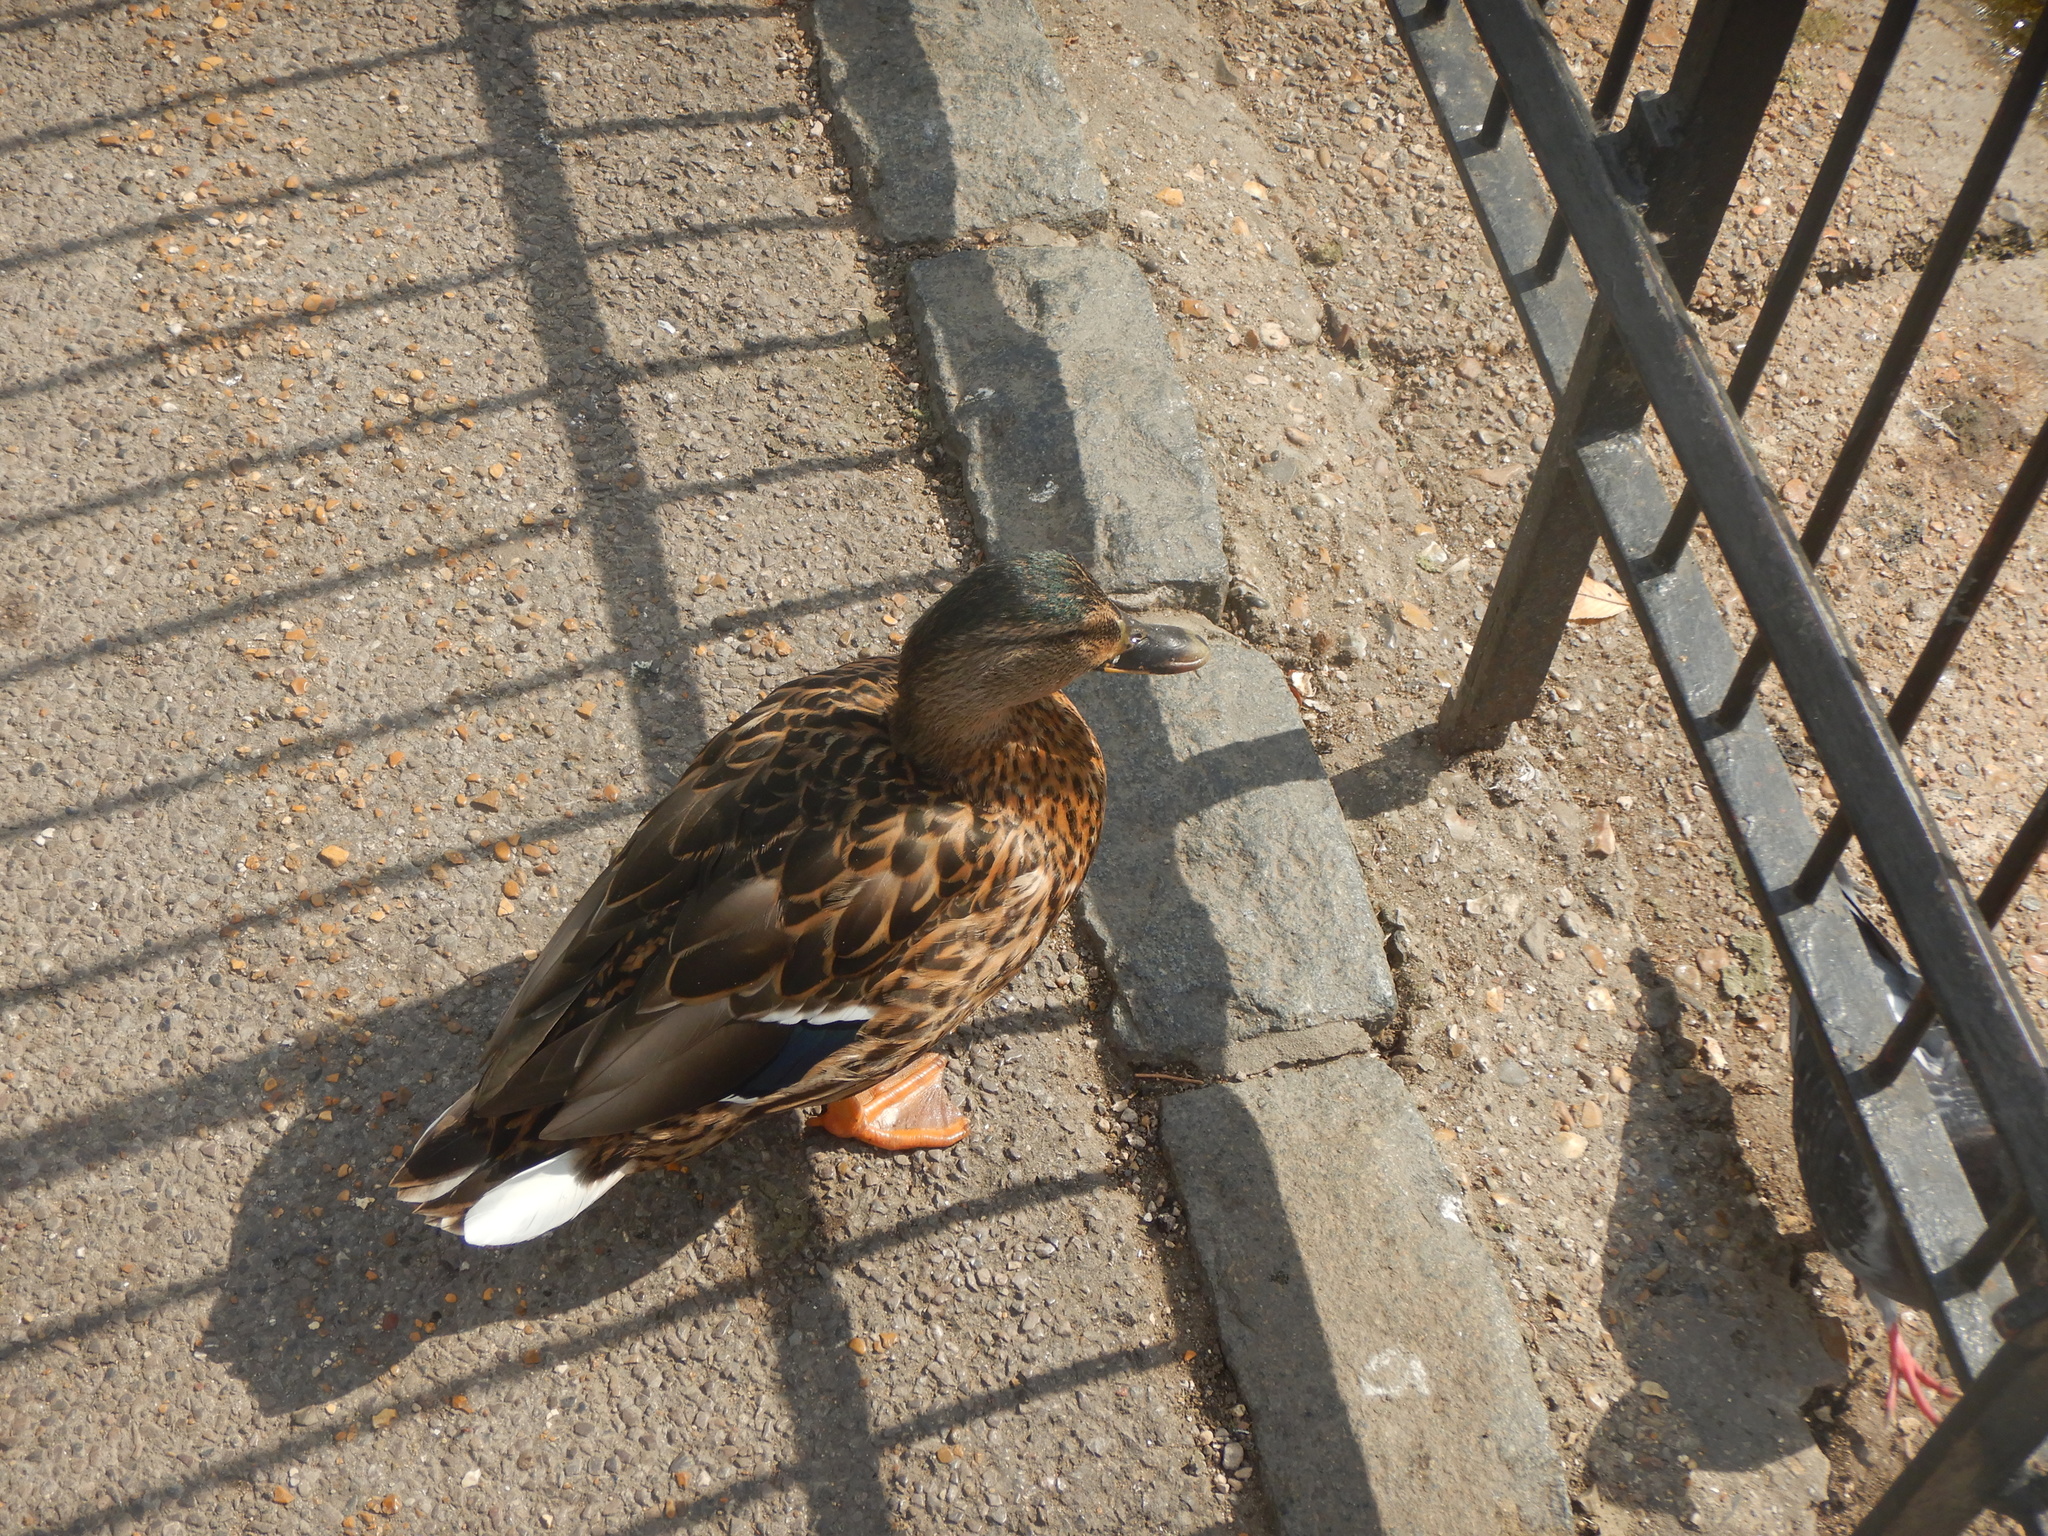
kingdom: Animalia
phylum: Chordata
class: Aves
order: Anseriformes
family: Anatidae
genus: Anas
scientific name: Anas platyrhynchos
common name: Mallard
